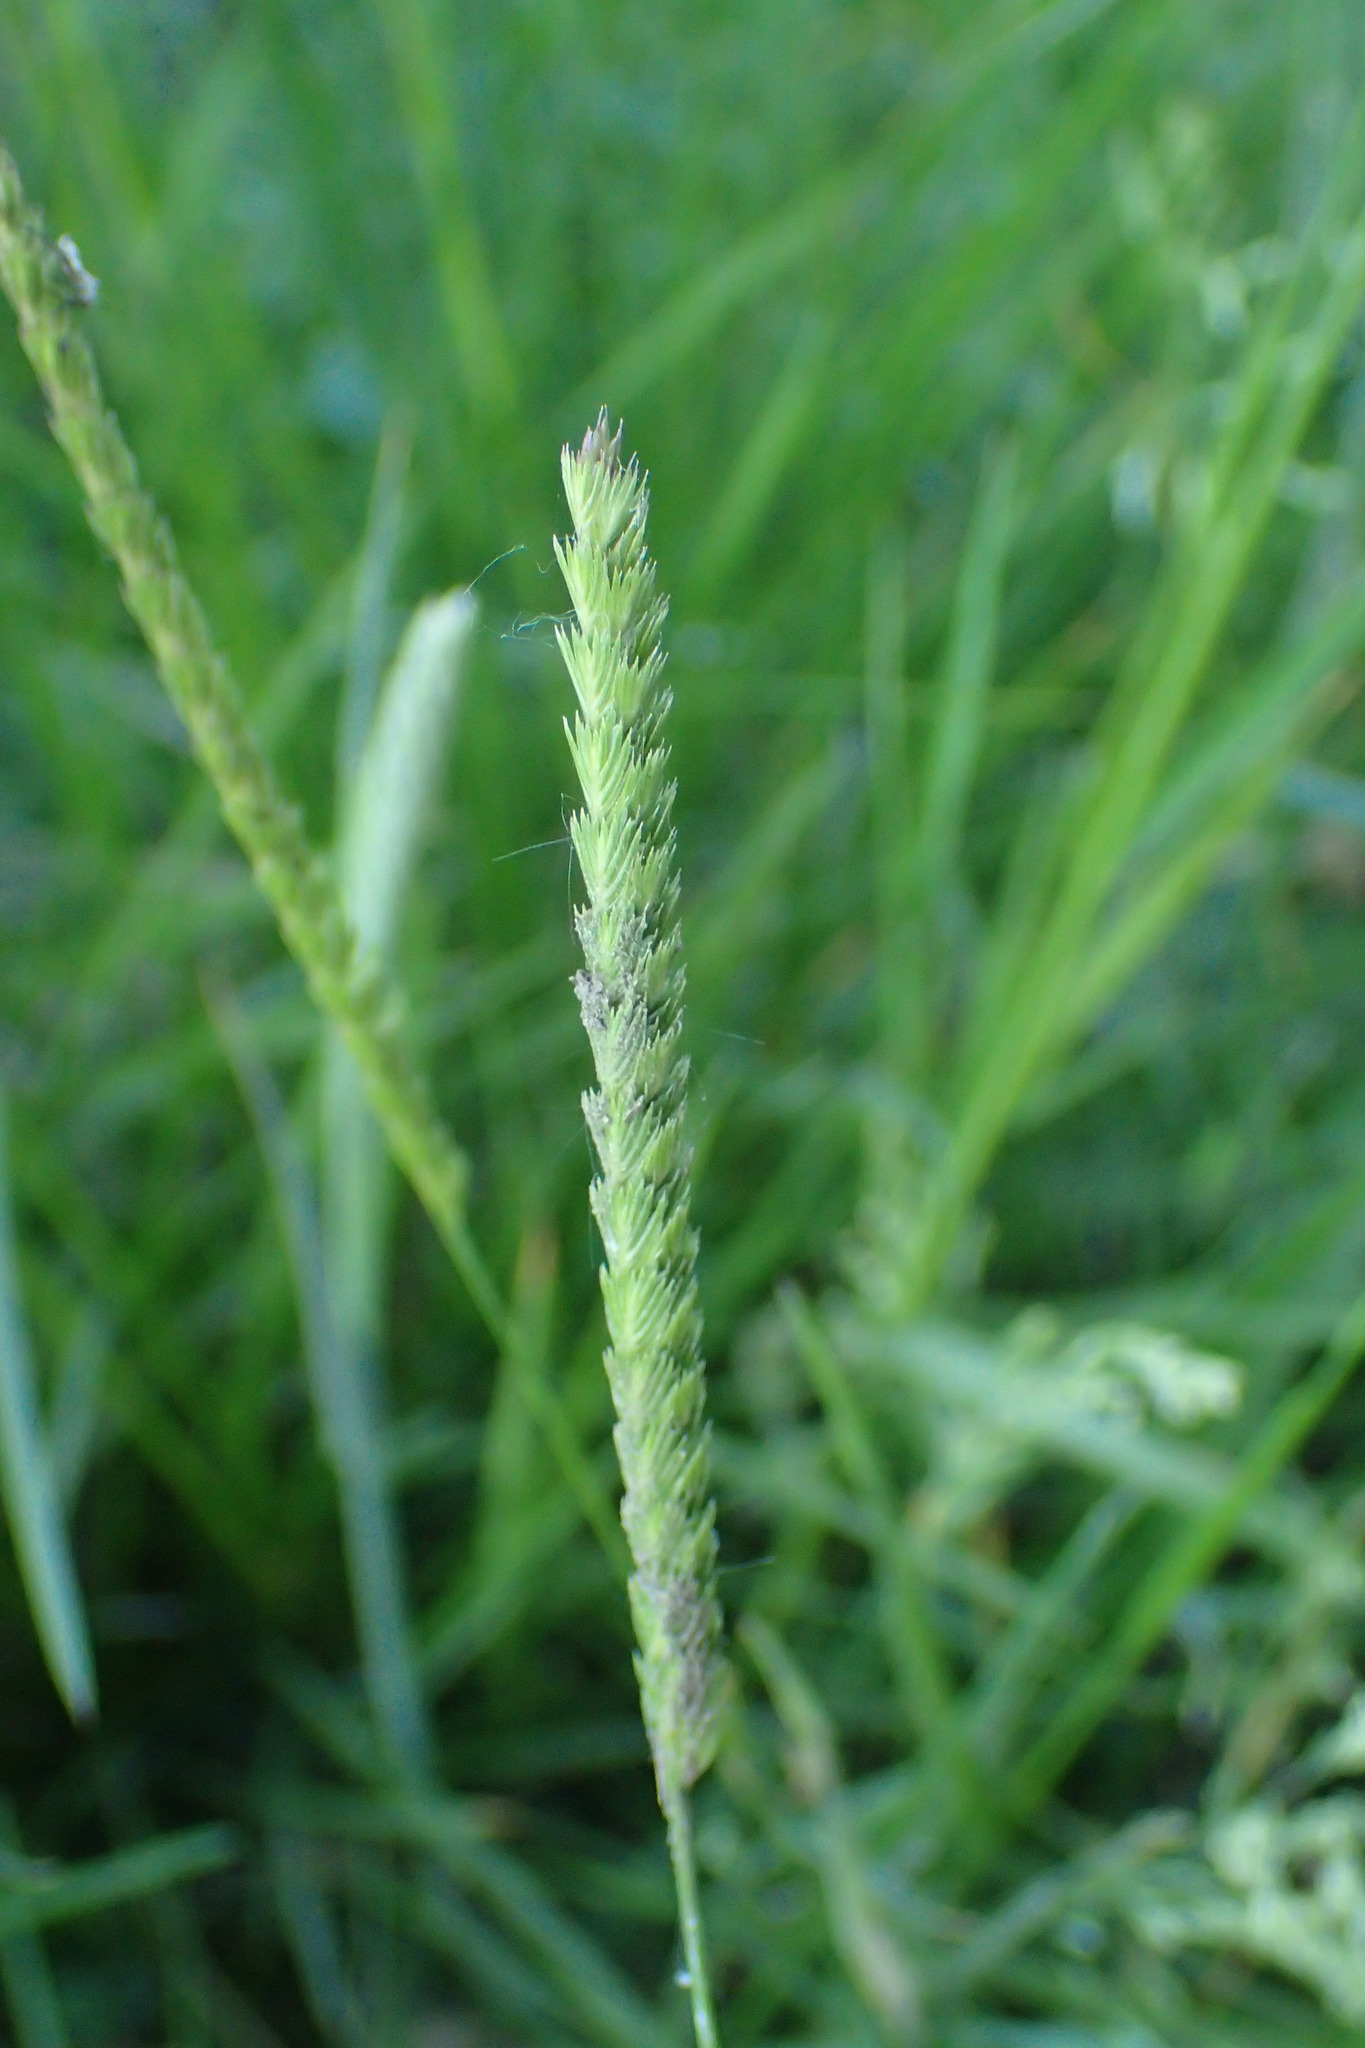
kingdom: Plantae
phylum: Tracheophyta
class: Liliopsida
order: Poales
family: Poaceae
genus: Cynosurus
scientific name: Cynosurus cristatus
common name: Crested dog's-tail
